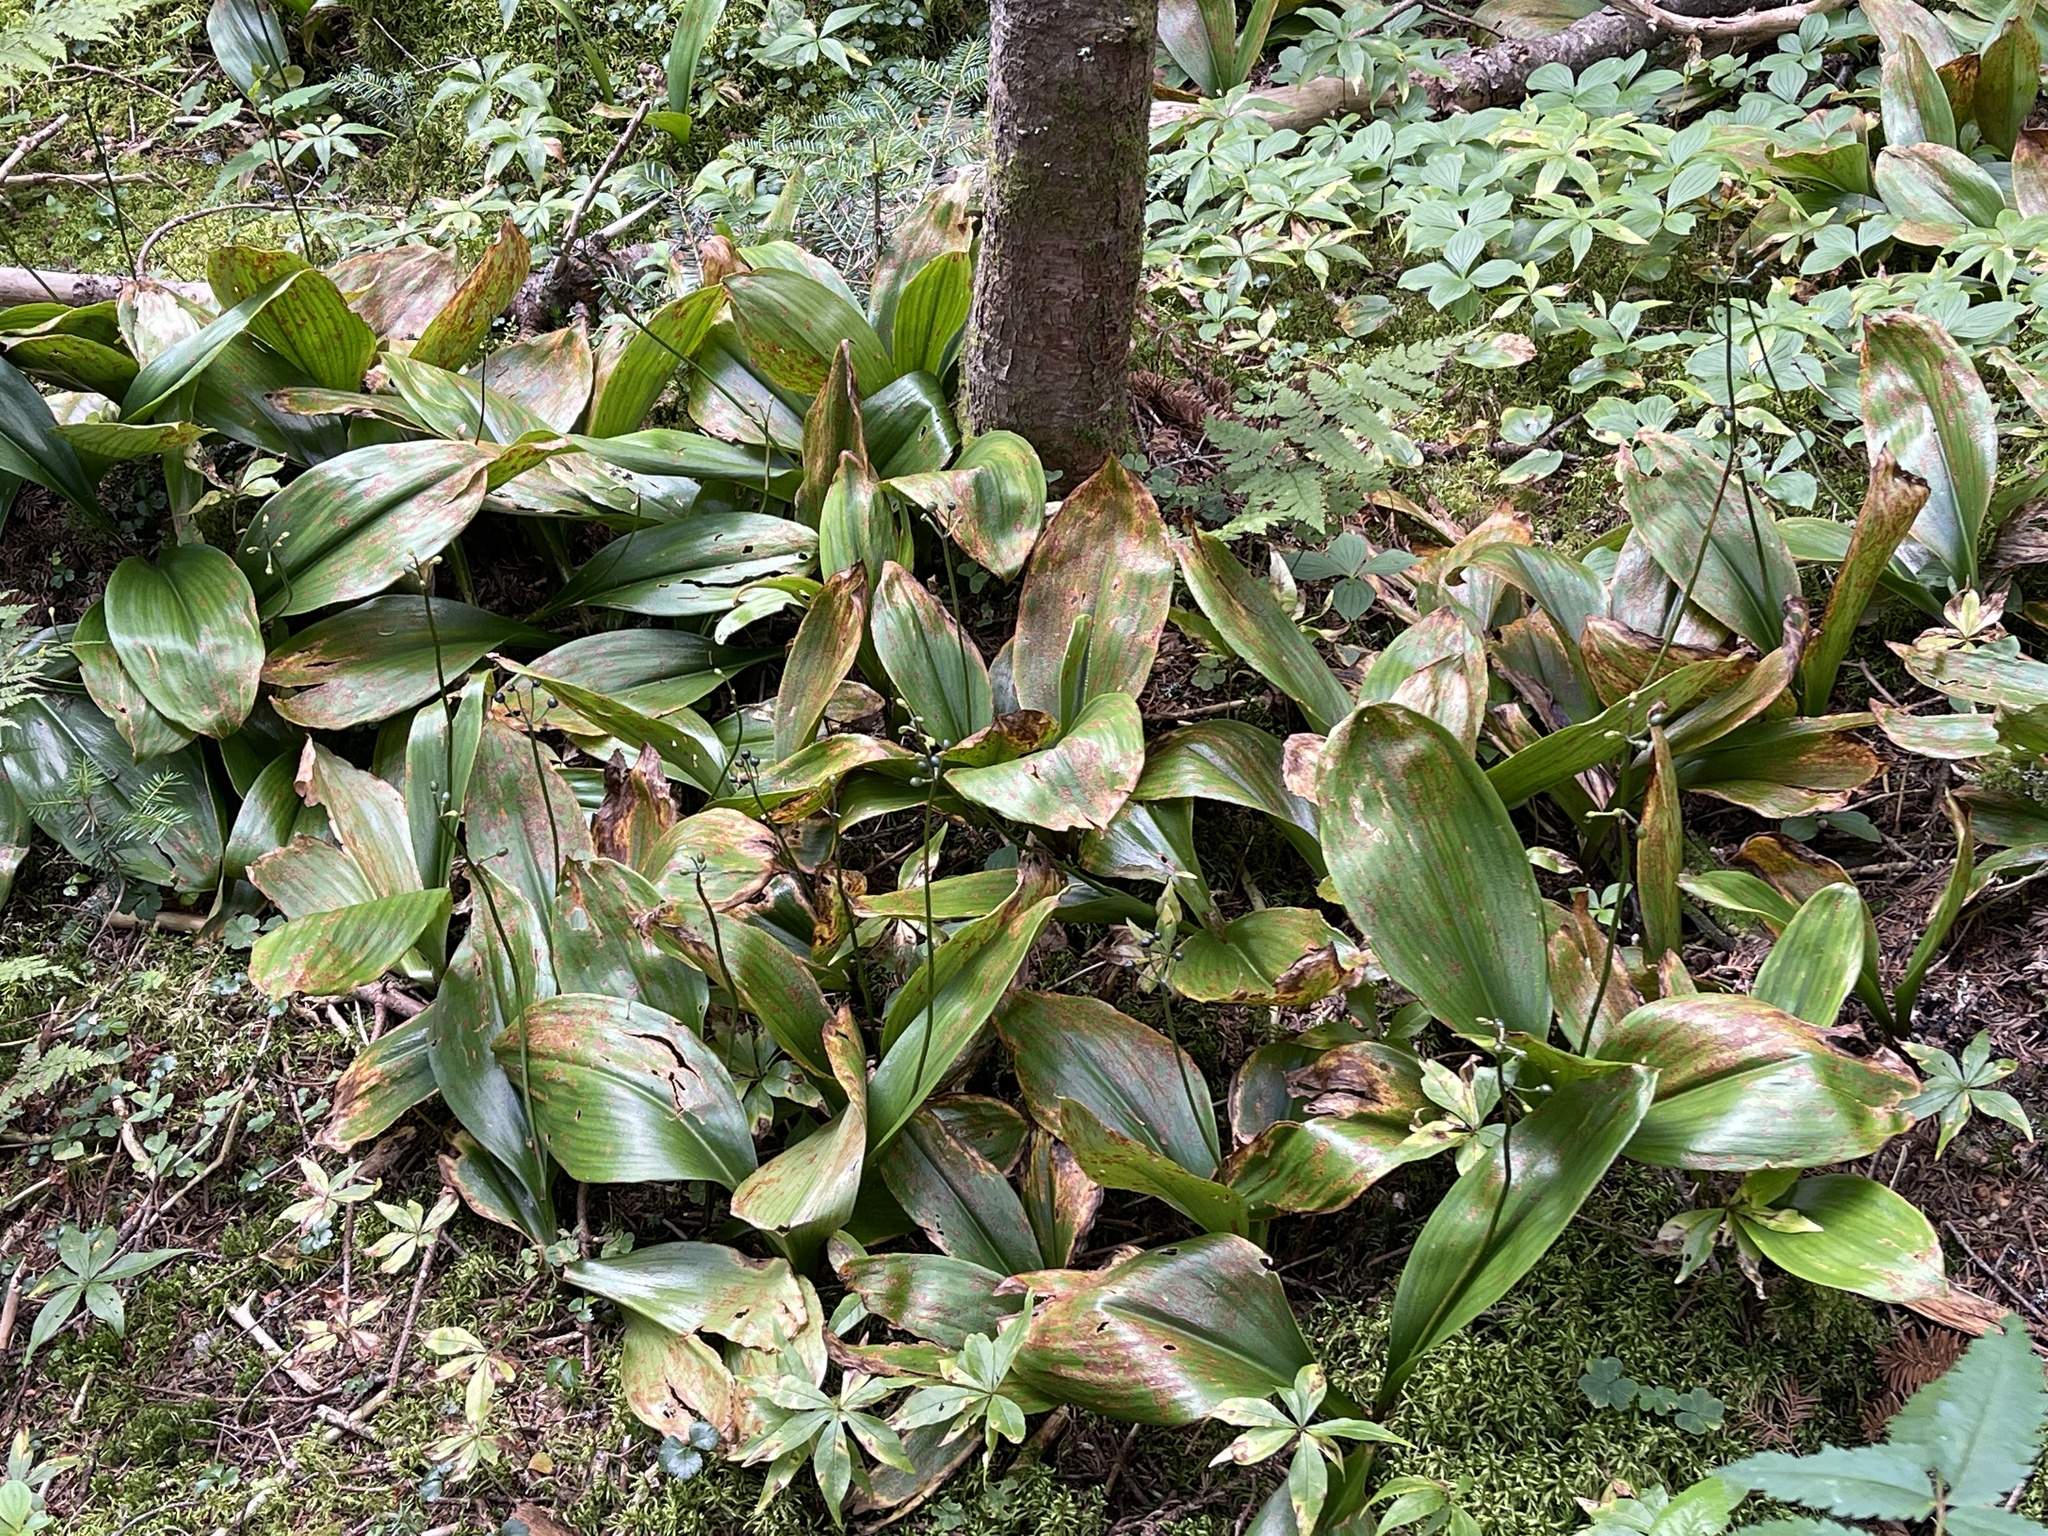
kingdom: Plantae
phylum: Tracheophyta
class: Liliopsida
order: Liliales
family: Liliaceae
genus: Clintonia
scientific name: Clintonia borealis
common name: Yellow clintonia
